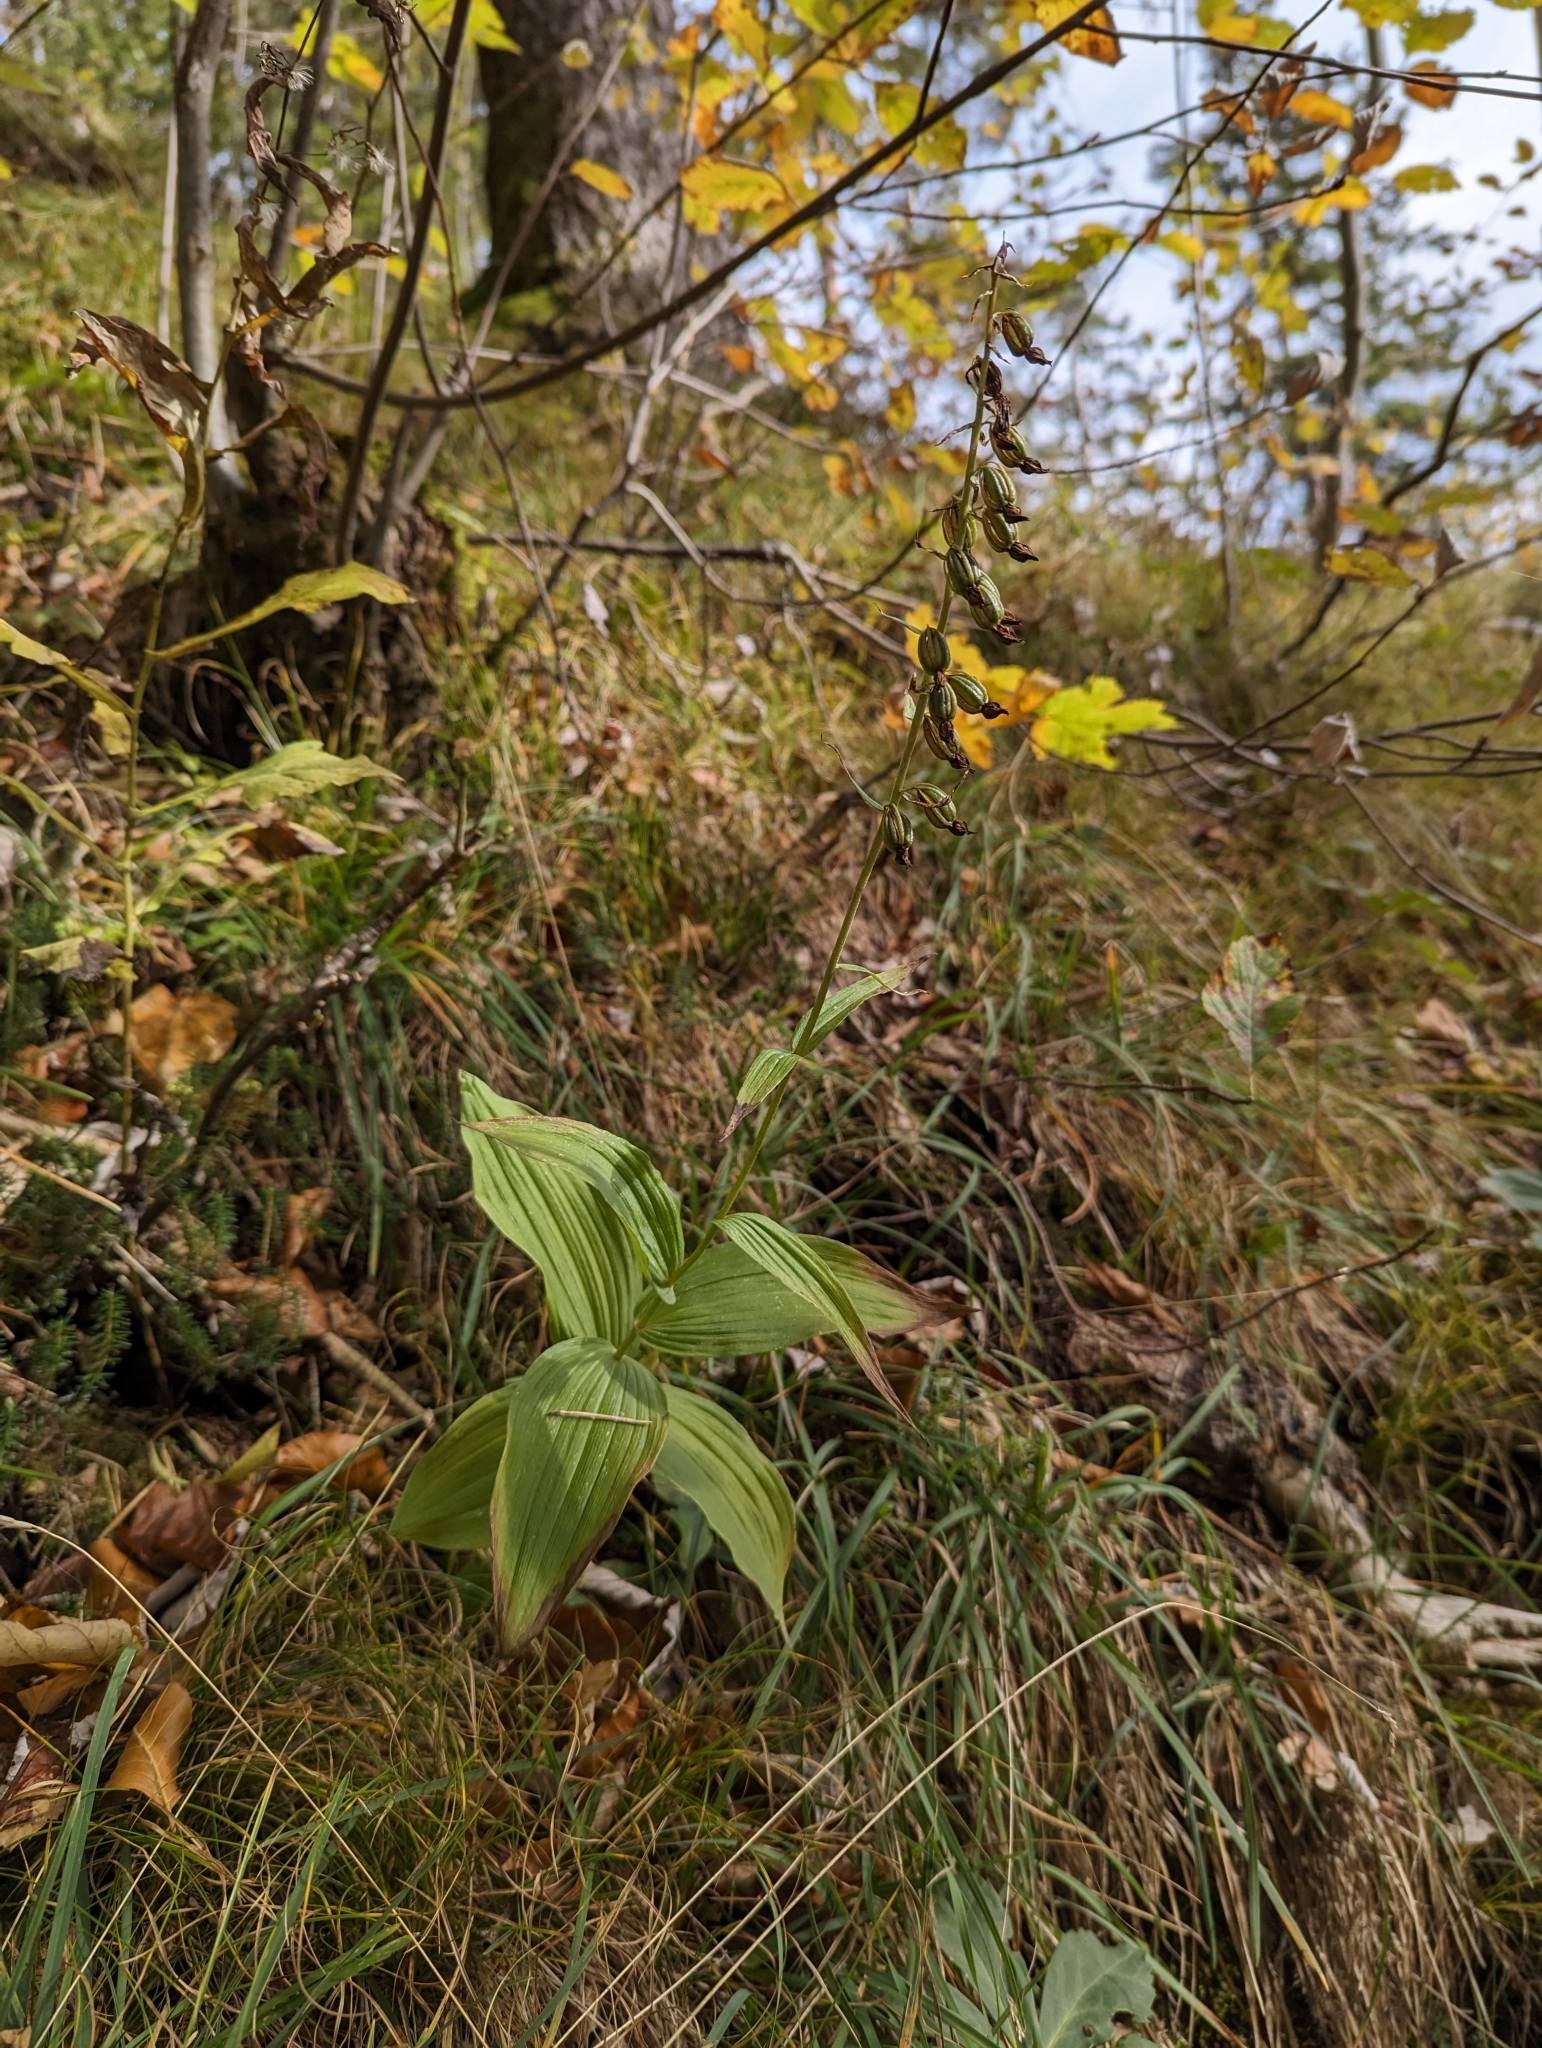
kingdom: Plantae
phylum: Tracheophyta
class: Liliopsida
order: Asparagales
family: Orchidaceae
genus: Epipactis
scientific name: Epipactis helleborine
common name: Broad-leaved helleborine
